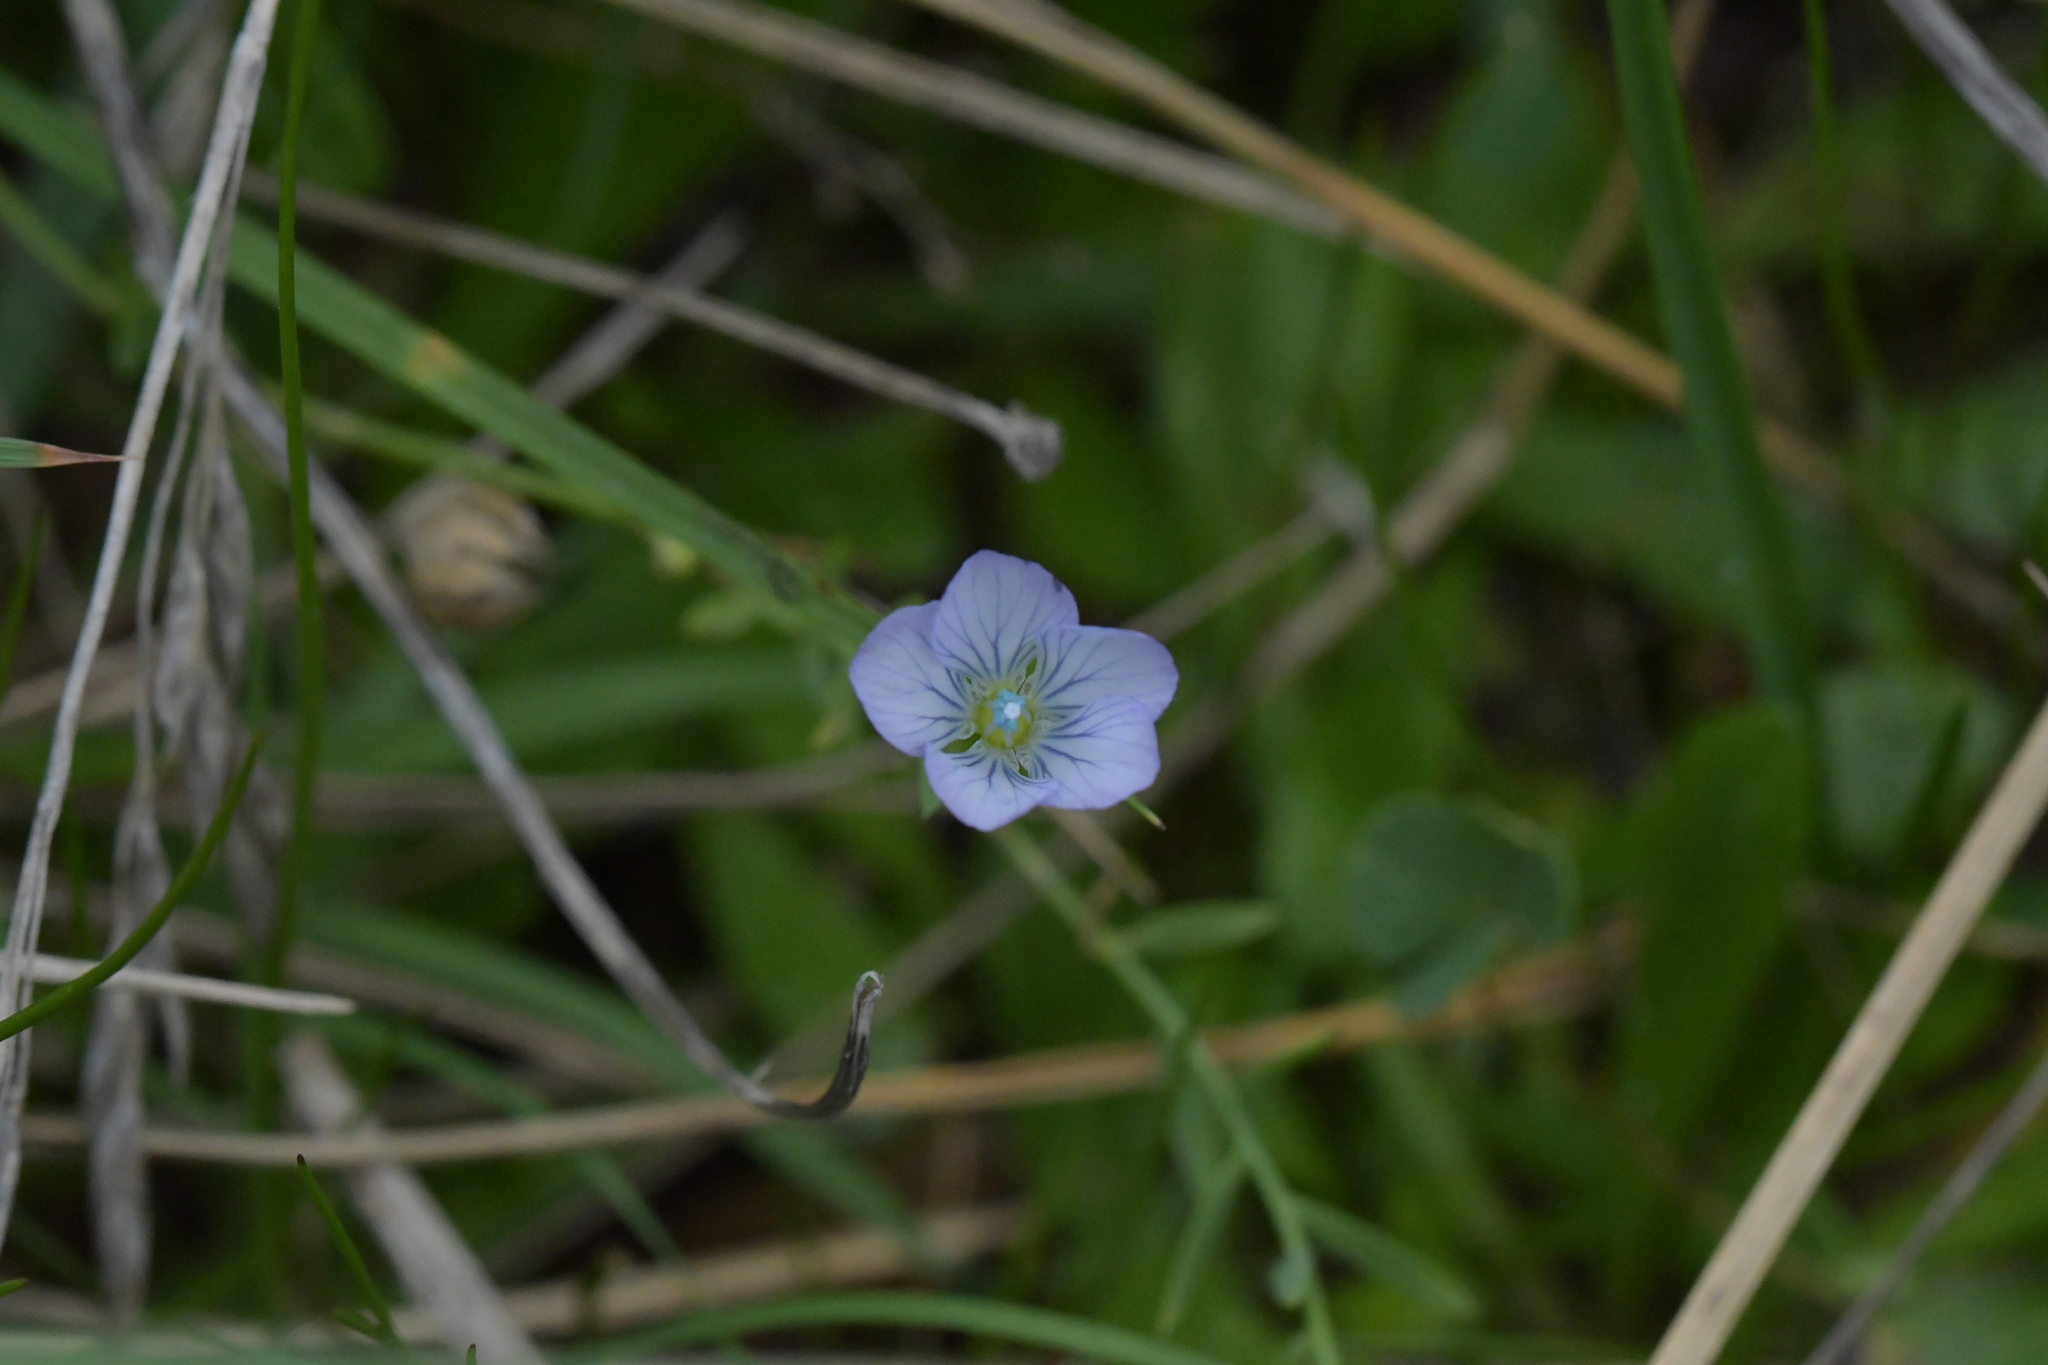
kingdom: Plantae
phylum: Tracheophyta
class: Magnoliopsida
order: Malpighiales
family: Linaceae
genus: Linum
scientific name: Linum bienne
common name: Pale flax
